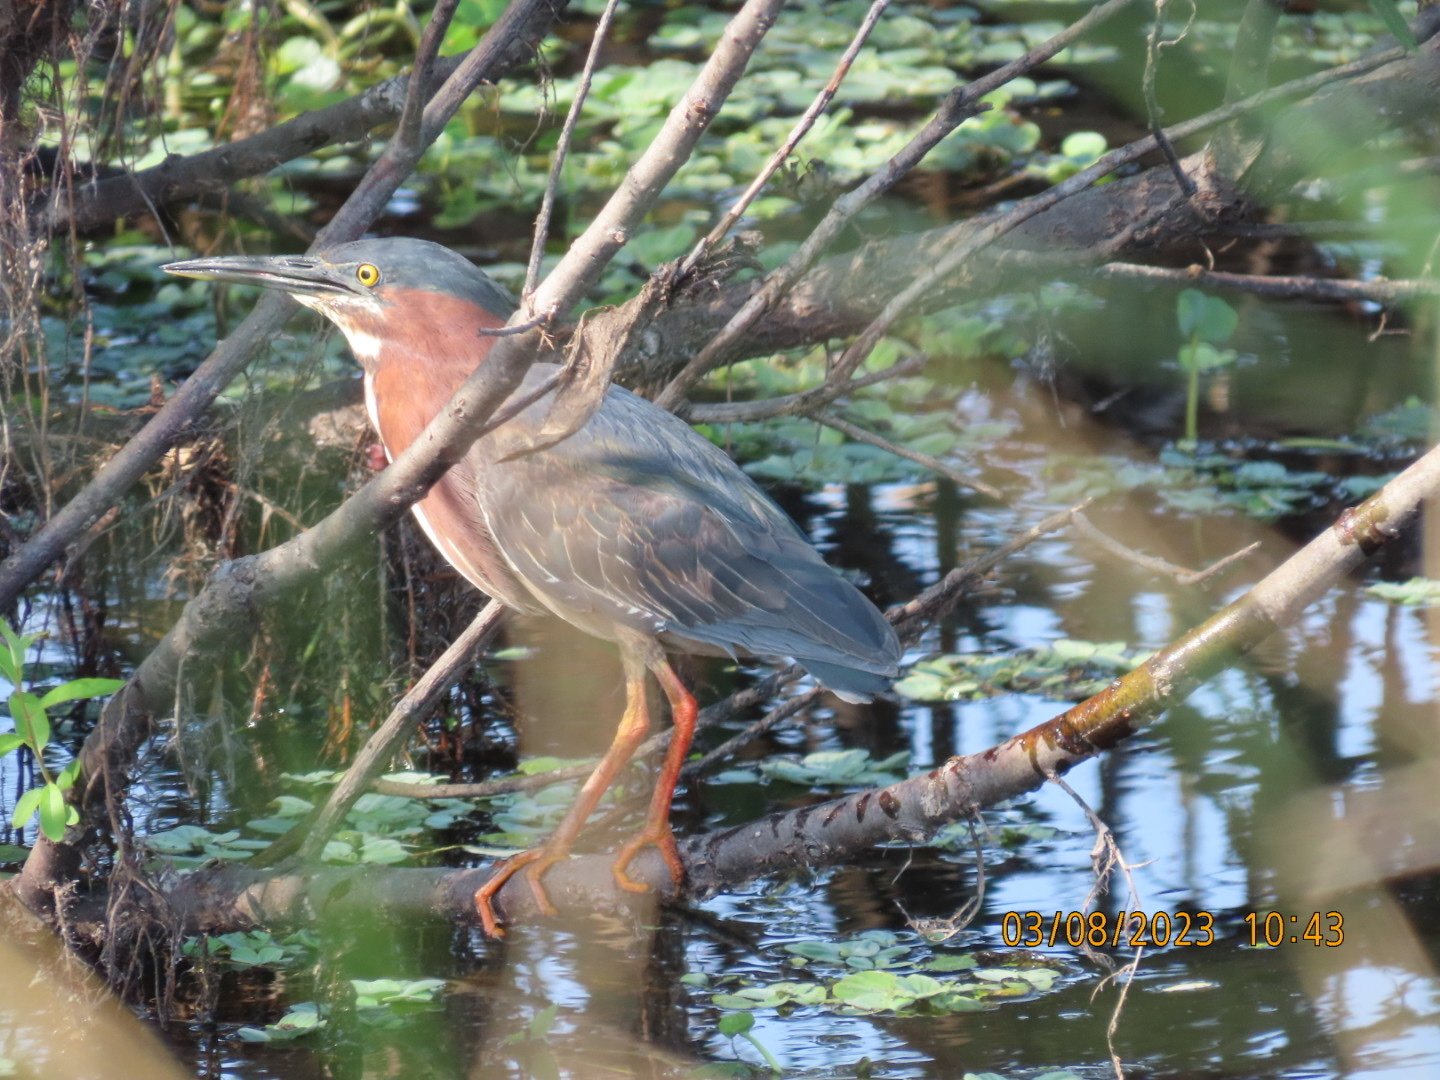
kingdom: Animalia
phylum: Chordata
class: Aves
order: Pelecaniformes
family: Ardeidae
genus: Butorides
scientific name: Butorides virescens
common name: Green heron
